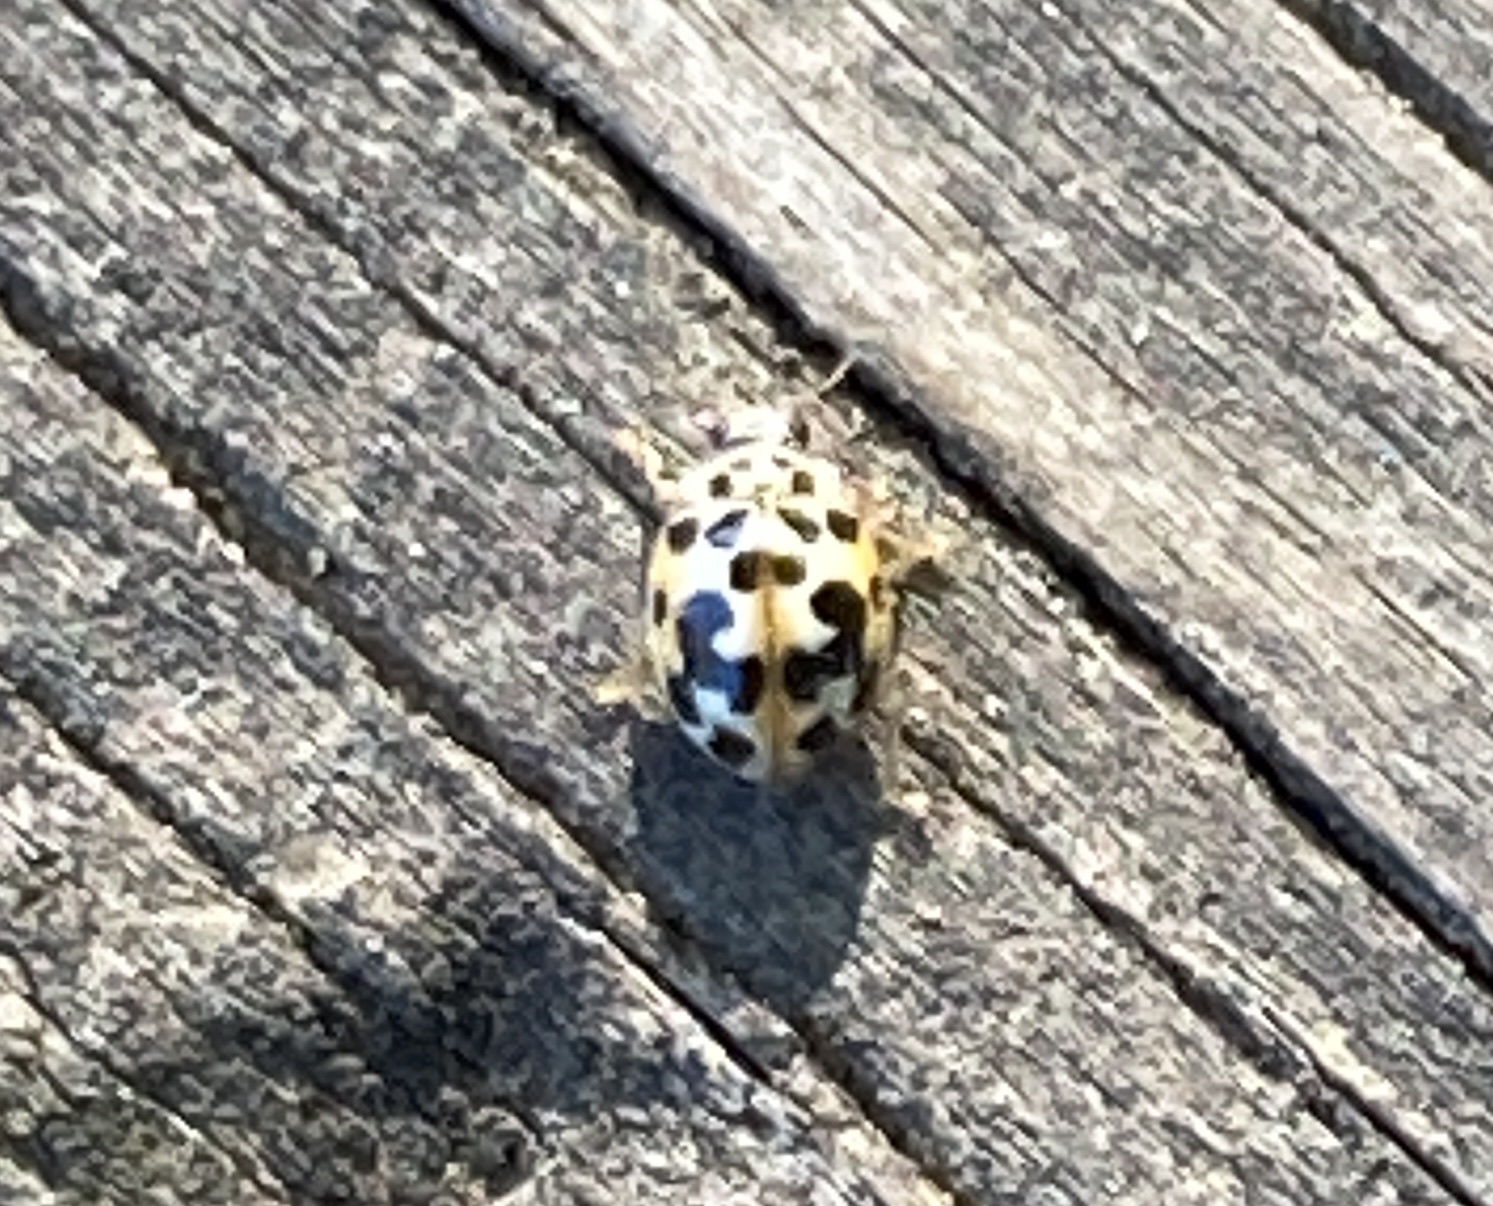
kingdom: Animalia
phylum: Arthropoda
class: Insecta
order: Coleoptera
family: Coccinellidae
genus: Psyllobora
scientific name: Psyllobora vigintimaculata
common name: Ladybird beetle
